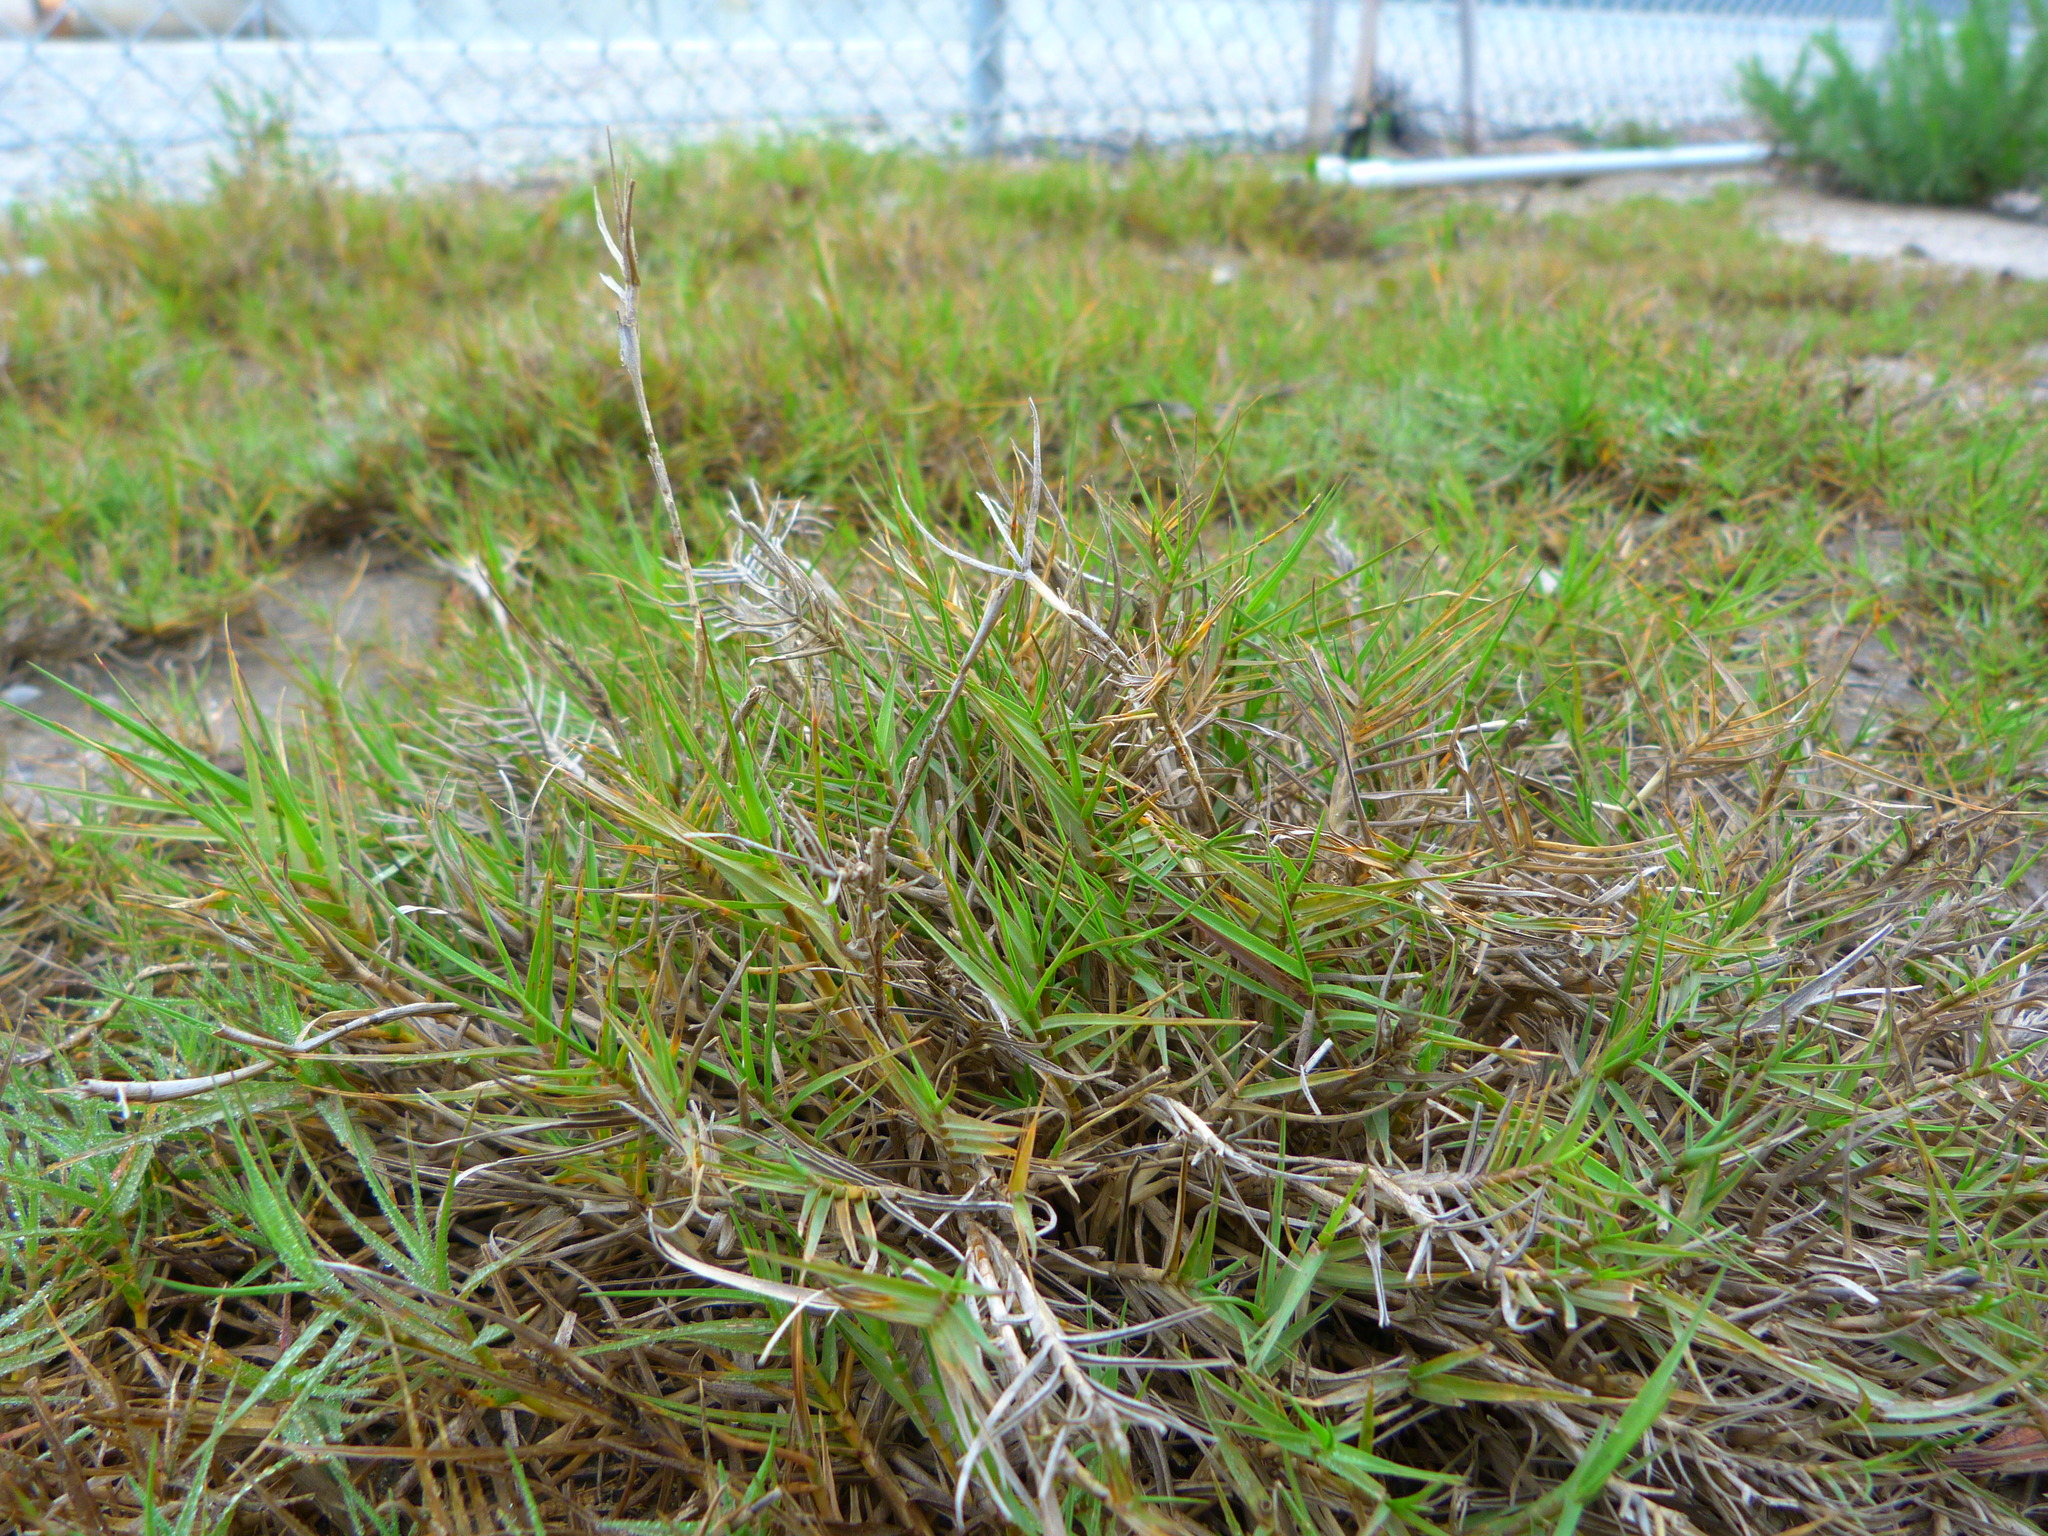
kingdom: Plantae
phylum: Tracheophyta
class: Liliopsida
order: Poales
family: Poaceae
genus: Distichlis
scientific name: Distichlis spicata
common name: Saltgrass
